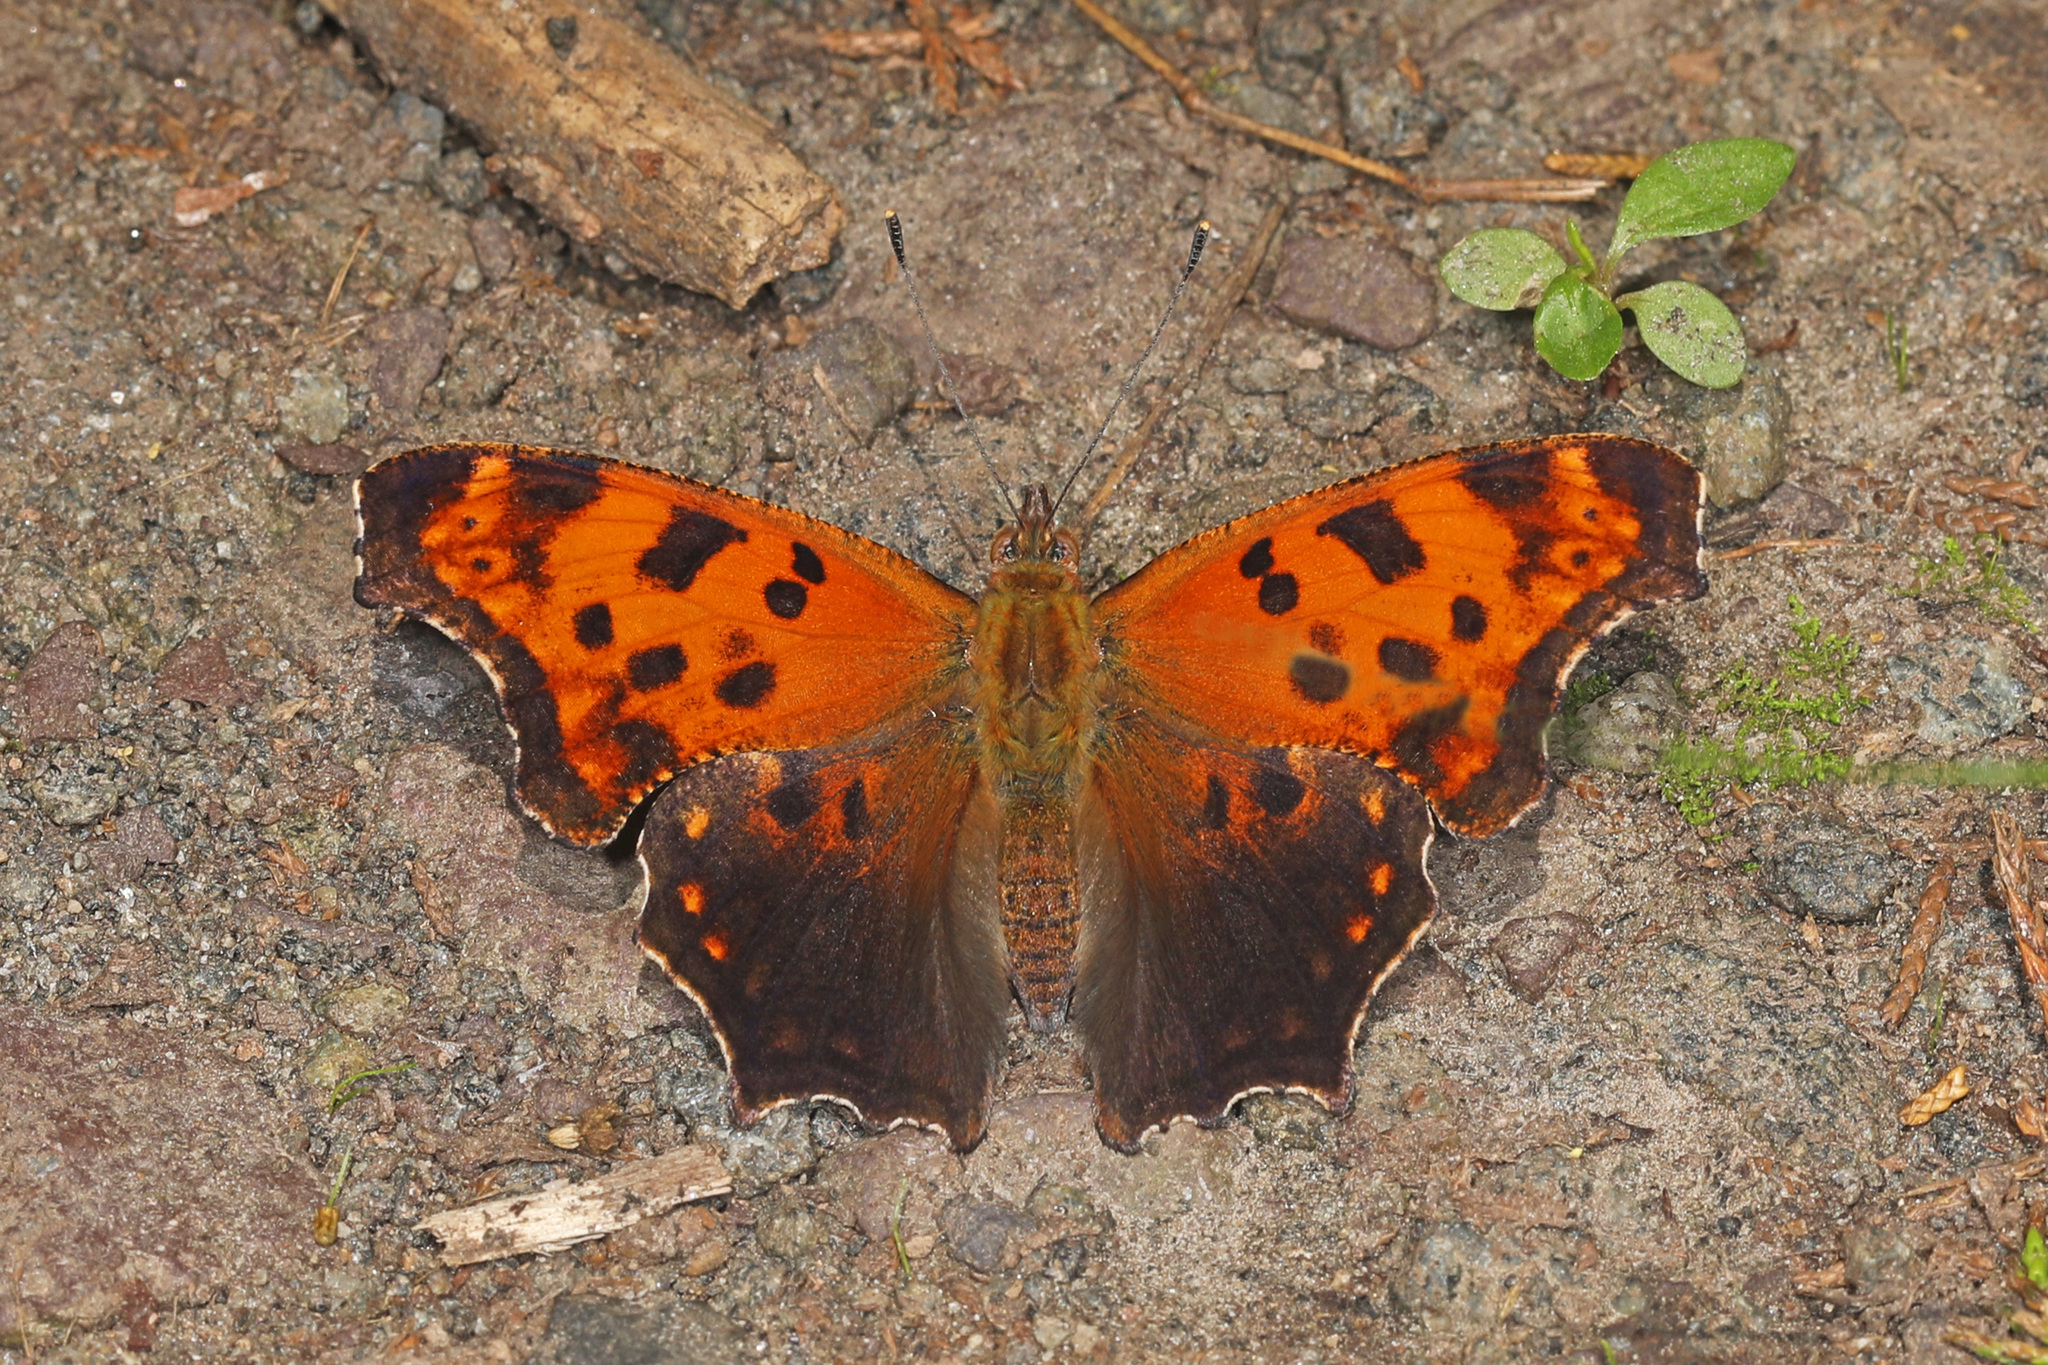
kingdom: Animalia
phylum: Arthropoda
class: Insecta
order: Lepidoptera
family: Nymphalidae
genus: Polygonia
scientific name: Polygonia comma
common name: Eastern comma
